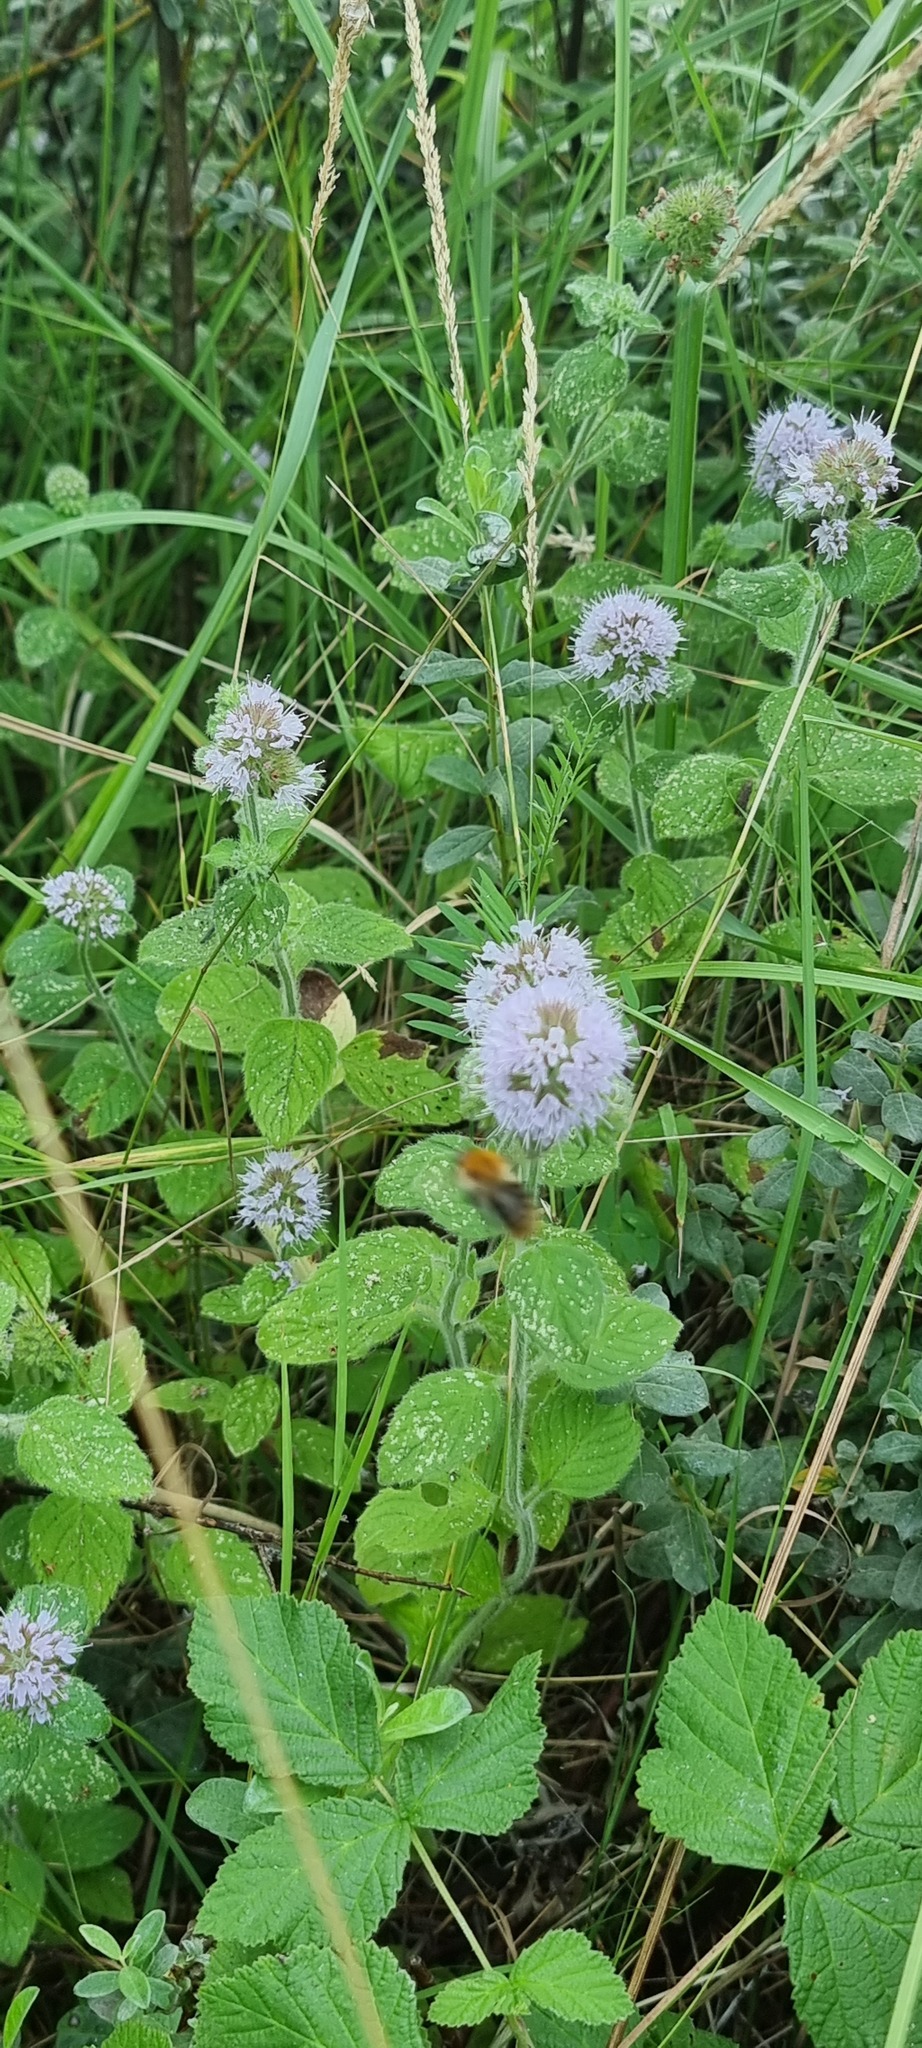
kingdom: Plantae
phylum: Tracheophyta
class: Magnoliopsida
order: Lamiales
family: Lamiaceae
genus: Mentha
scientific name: Mentha aquatica
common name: Water mint
